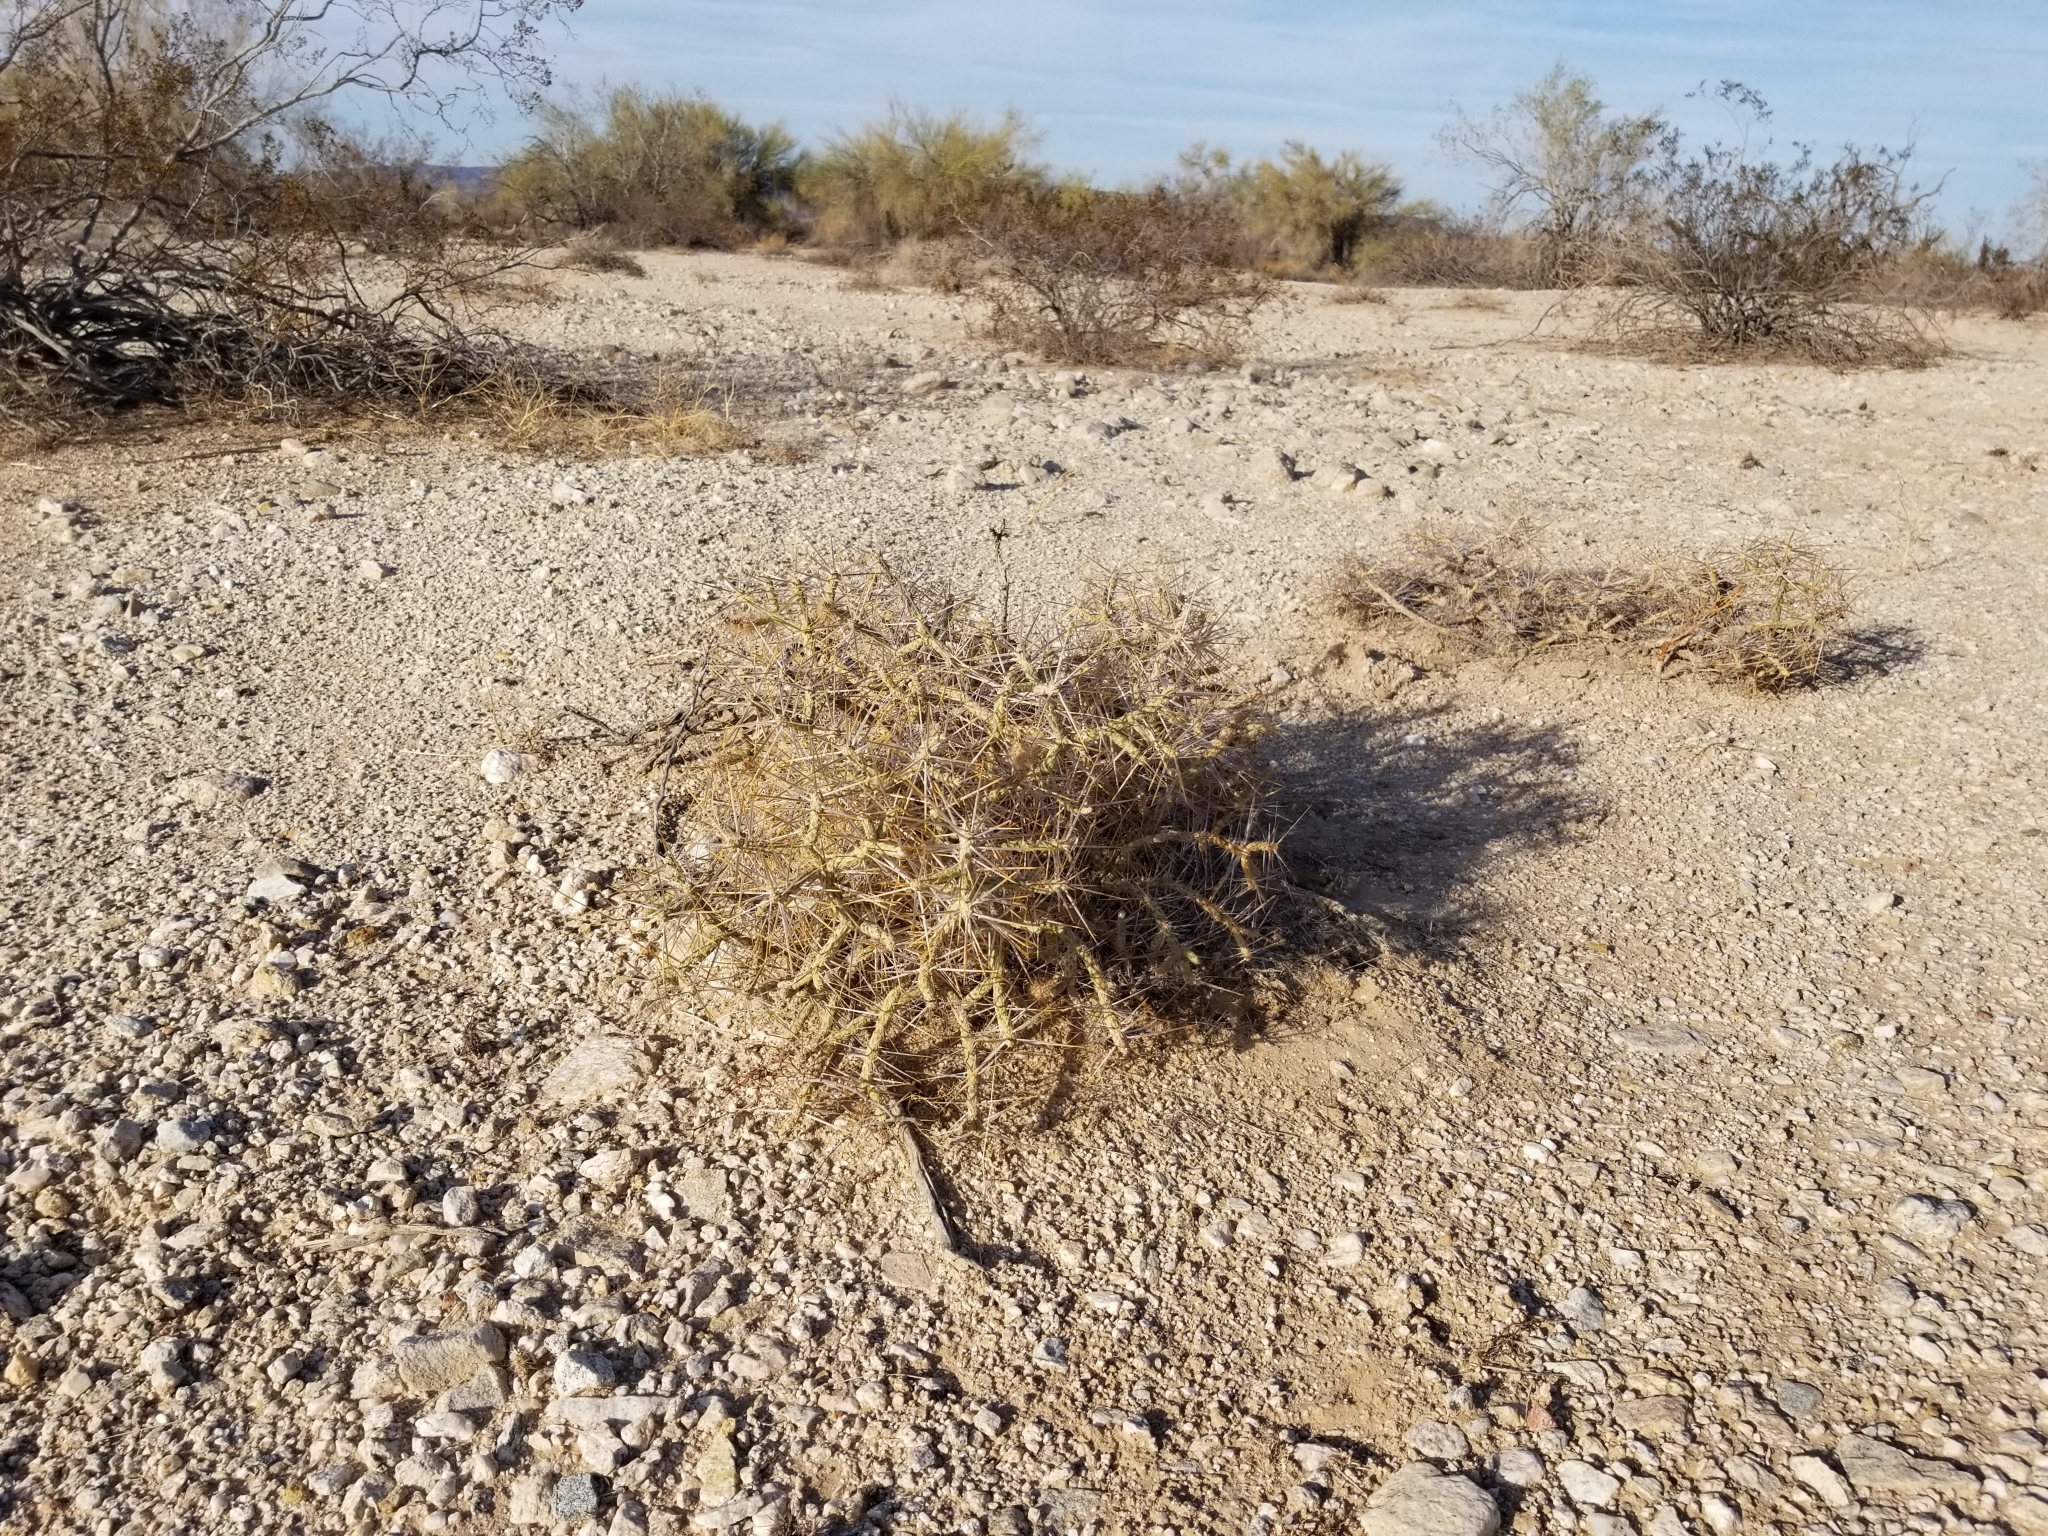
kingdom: Plantae
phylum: Tracheophyta
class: Magnoliopsida
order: Caryophyllales
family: Cactaceae
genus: Cylindropuntia
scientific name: Cylindropuntia ramosissima
